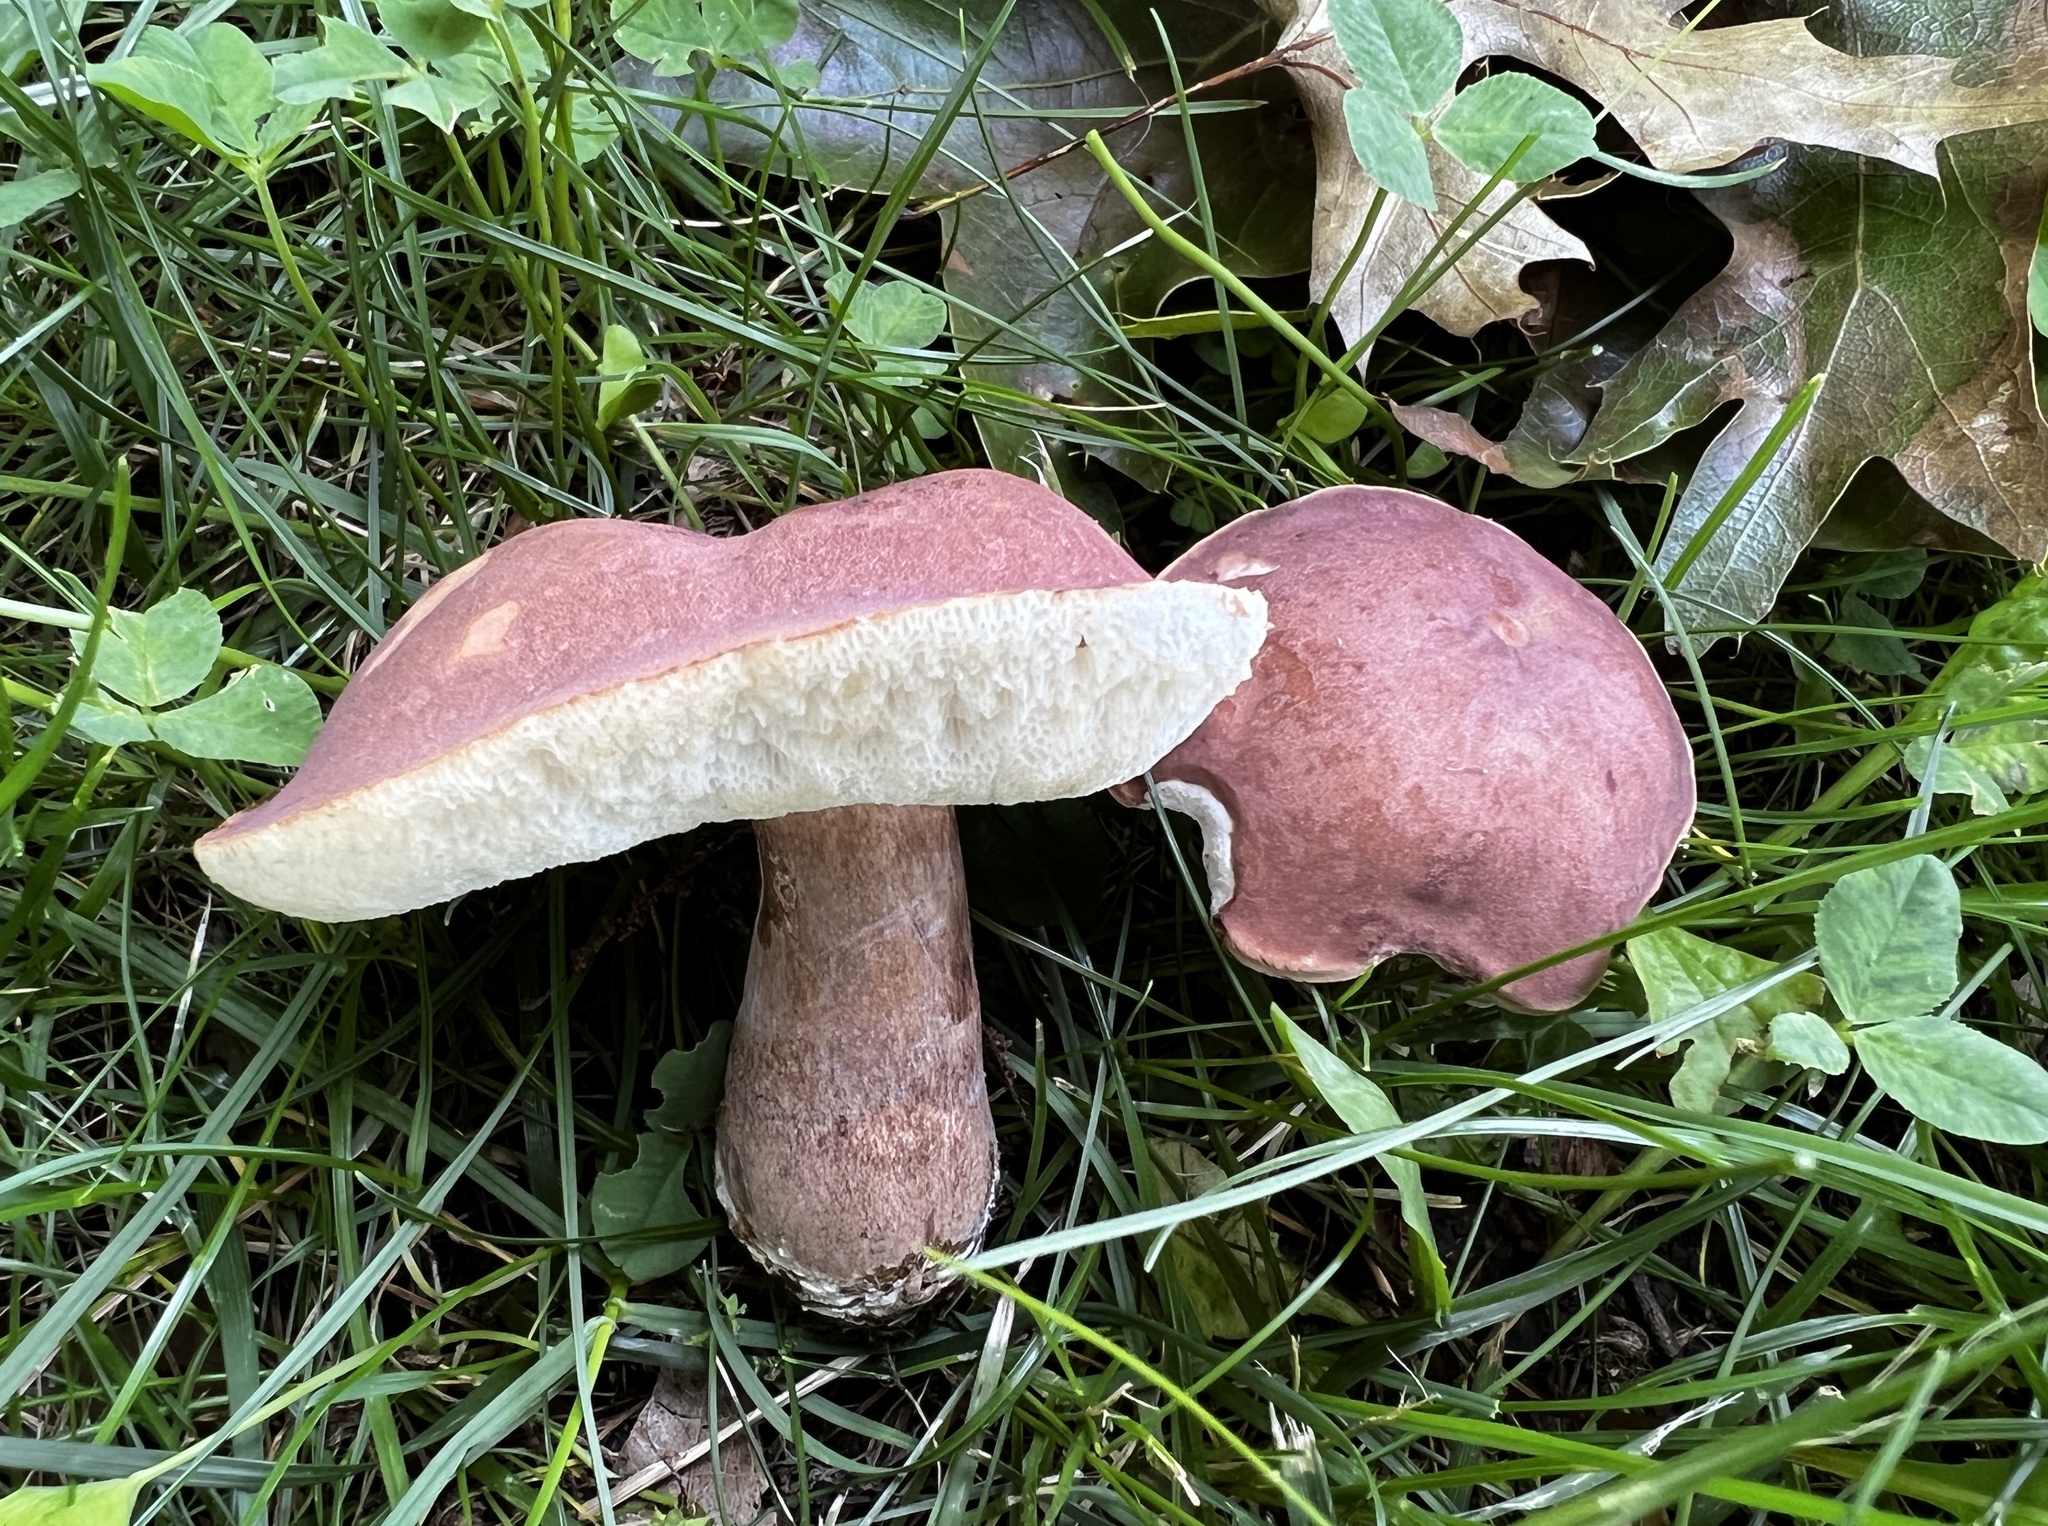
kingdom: Fungi
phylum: Basidiomycota
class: Agaricomycetes
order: Boletales
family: Boletaceae
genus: Tylopilus
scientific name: Tylopilus badiceps
